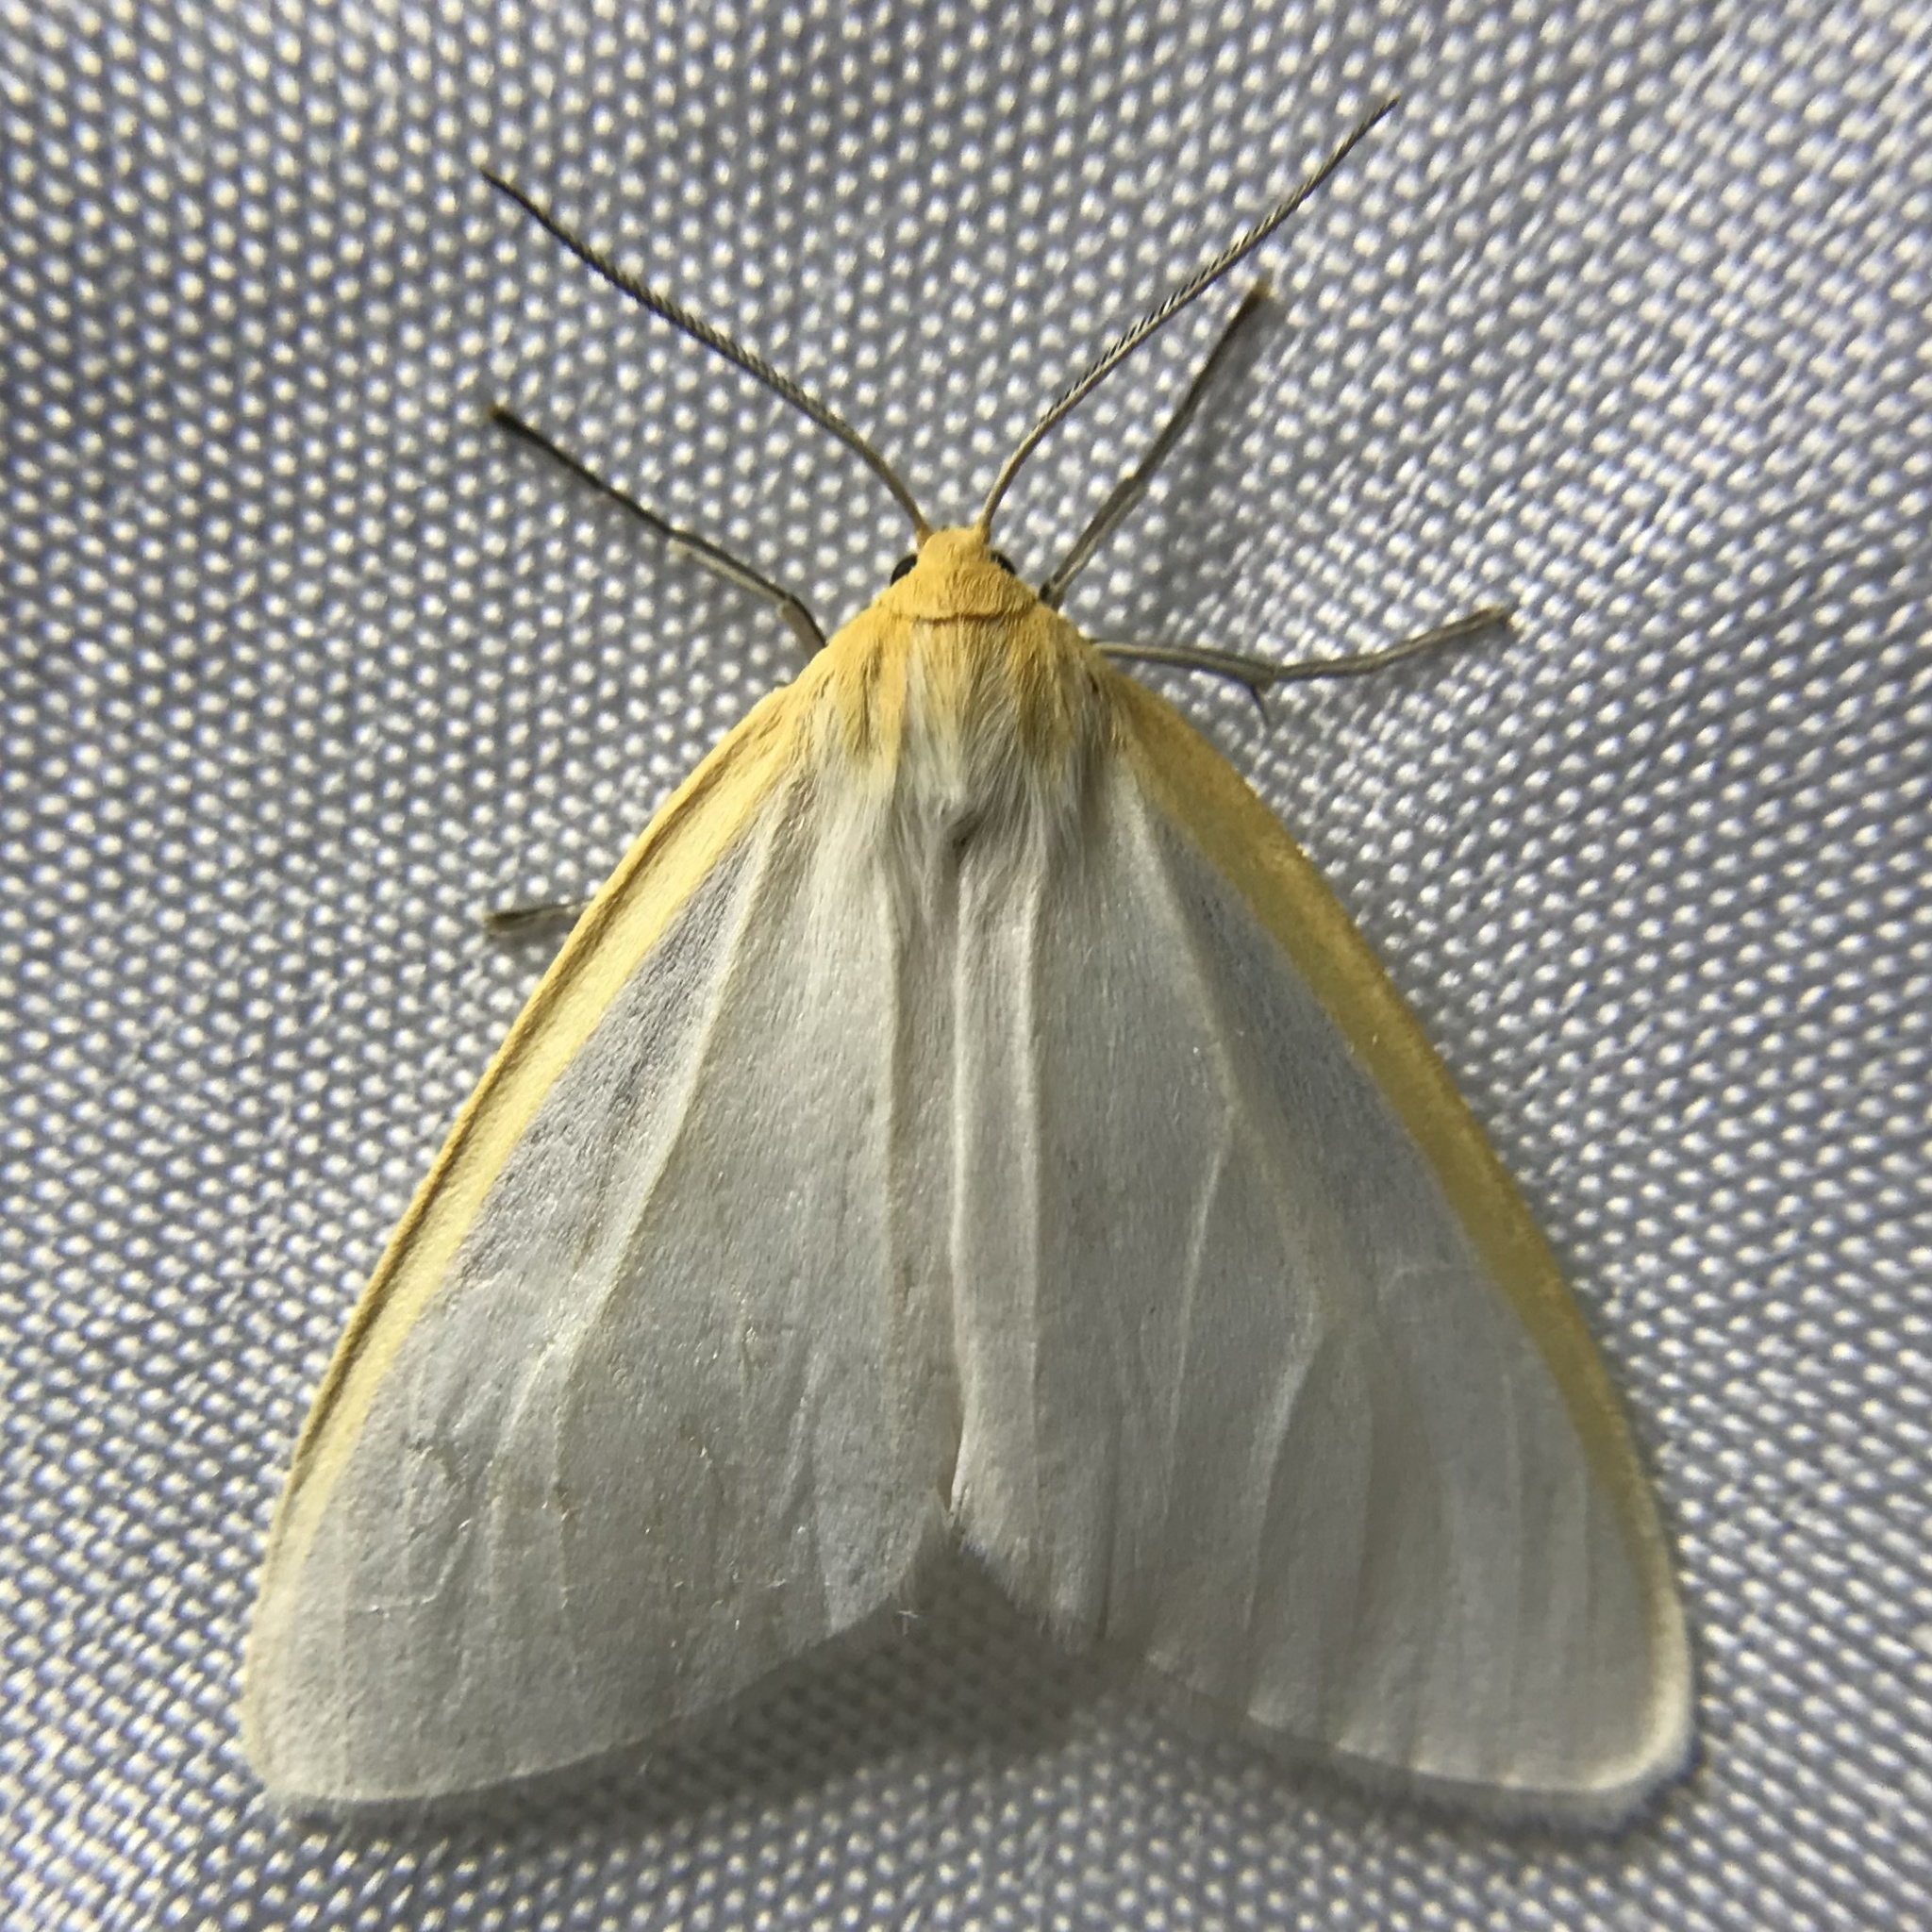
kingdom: Animalia
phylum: Arthropoda
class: Insecta
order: Lepidoptera
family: Erebidae
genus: Cycnia
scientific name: Cycnia tenera
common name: Delicate cycnia moth
